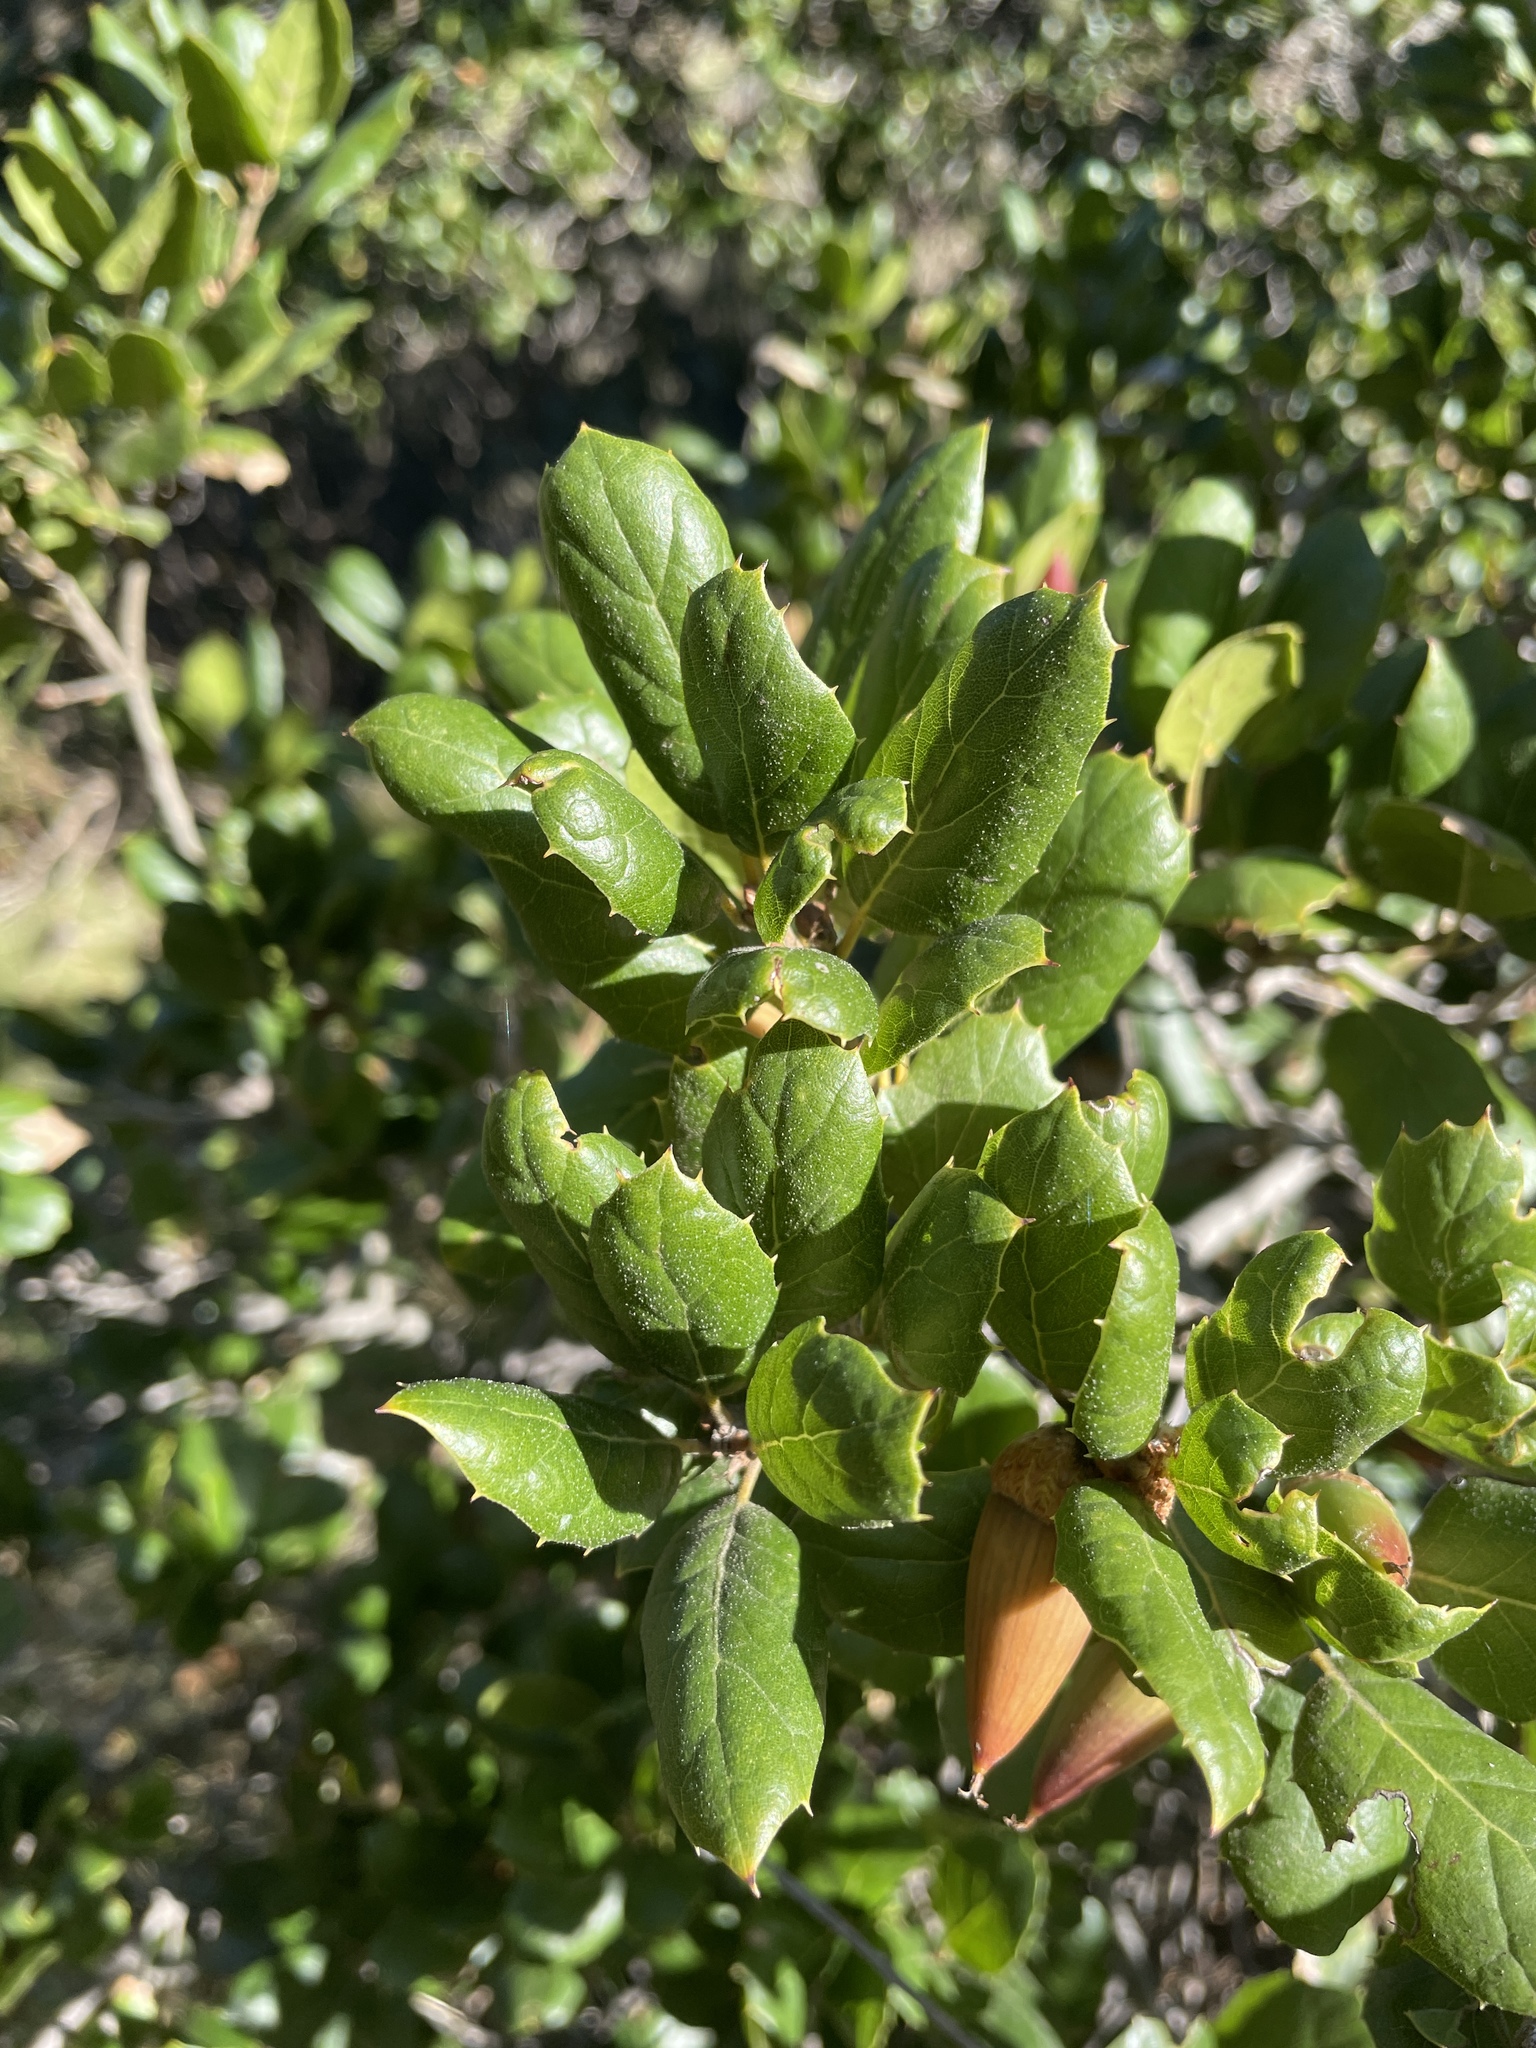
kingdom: Plantae
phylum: Tracheophyta
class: Magnoliopsida
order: Fagales
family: Fagaceae
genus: Quercus
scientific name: Quercus agrifolia
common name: California live oak
